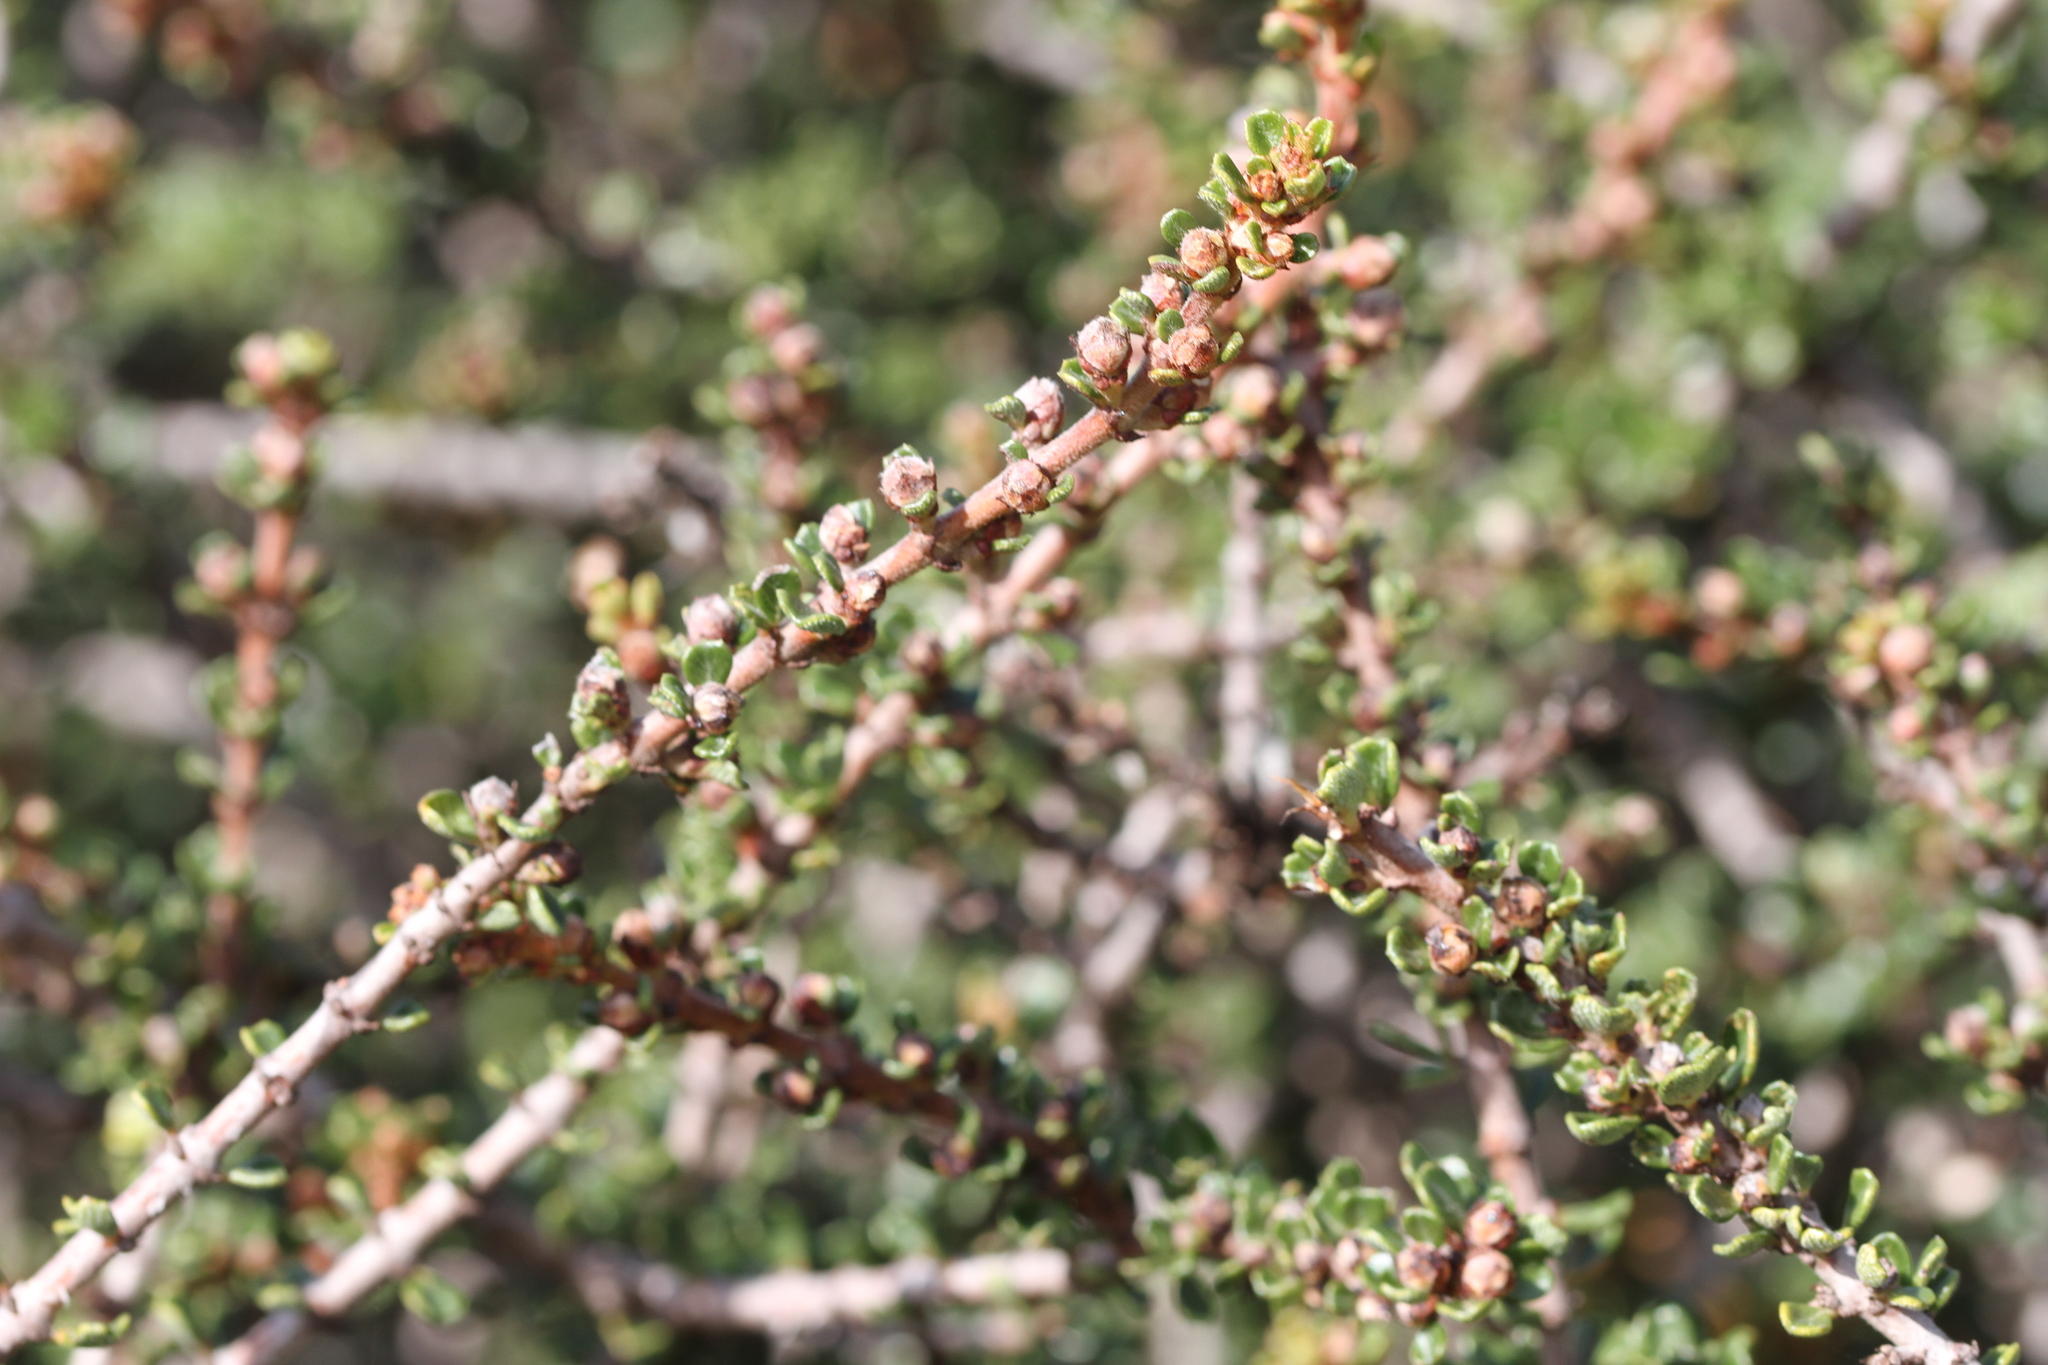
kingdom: Plantae
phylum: Tracheophyta
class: Magnoliopsida
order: Rosales
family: Rhamnaceae
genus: Ceanothus
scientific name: Ceanothus cuneatus
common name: Cuneate ceanothus
